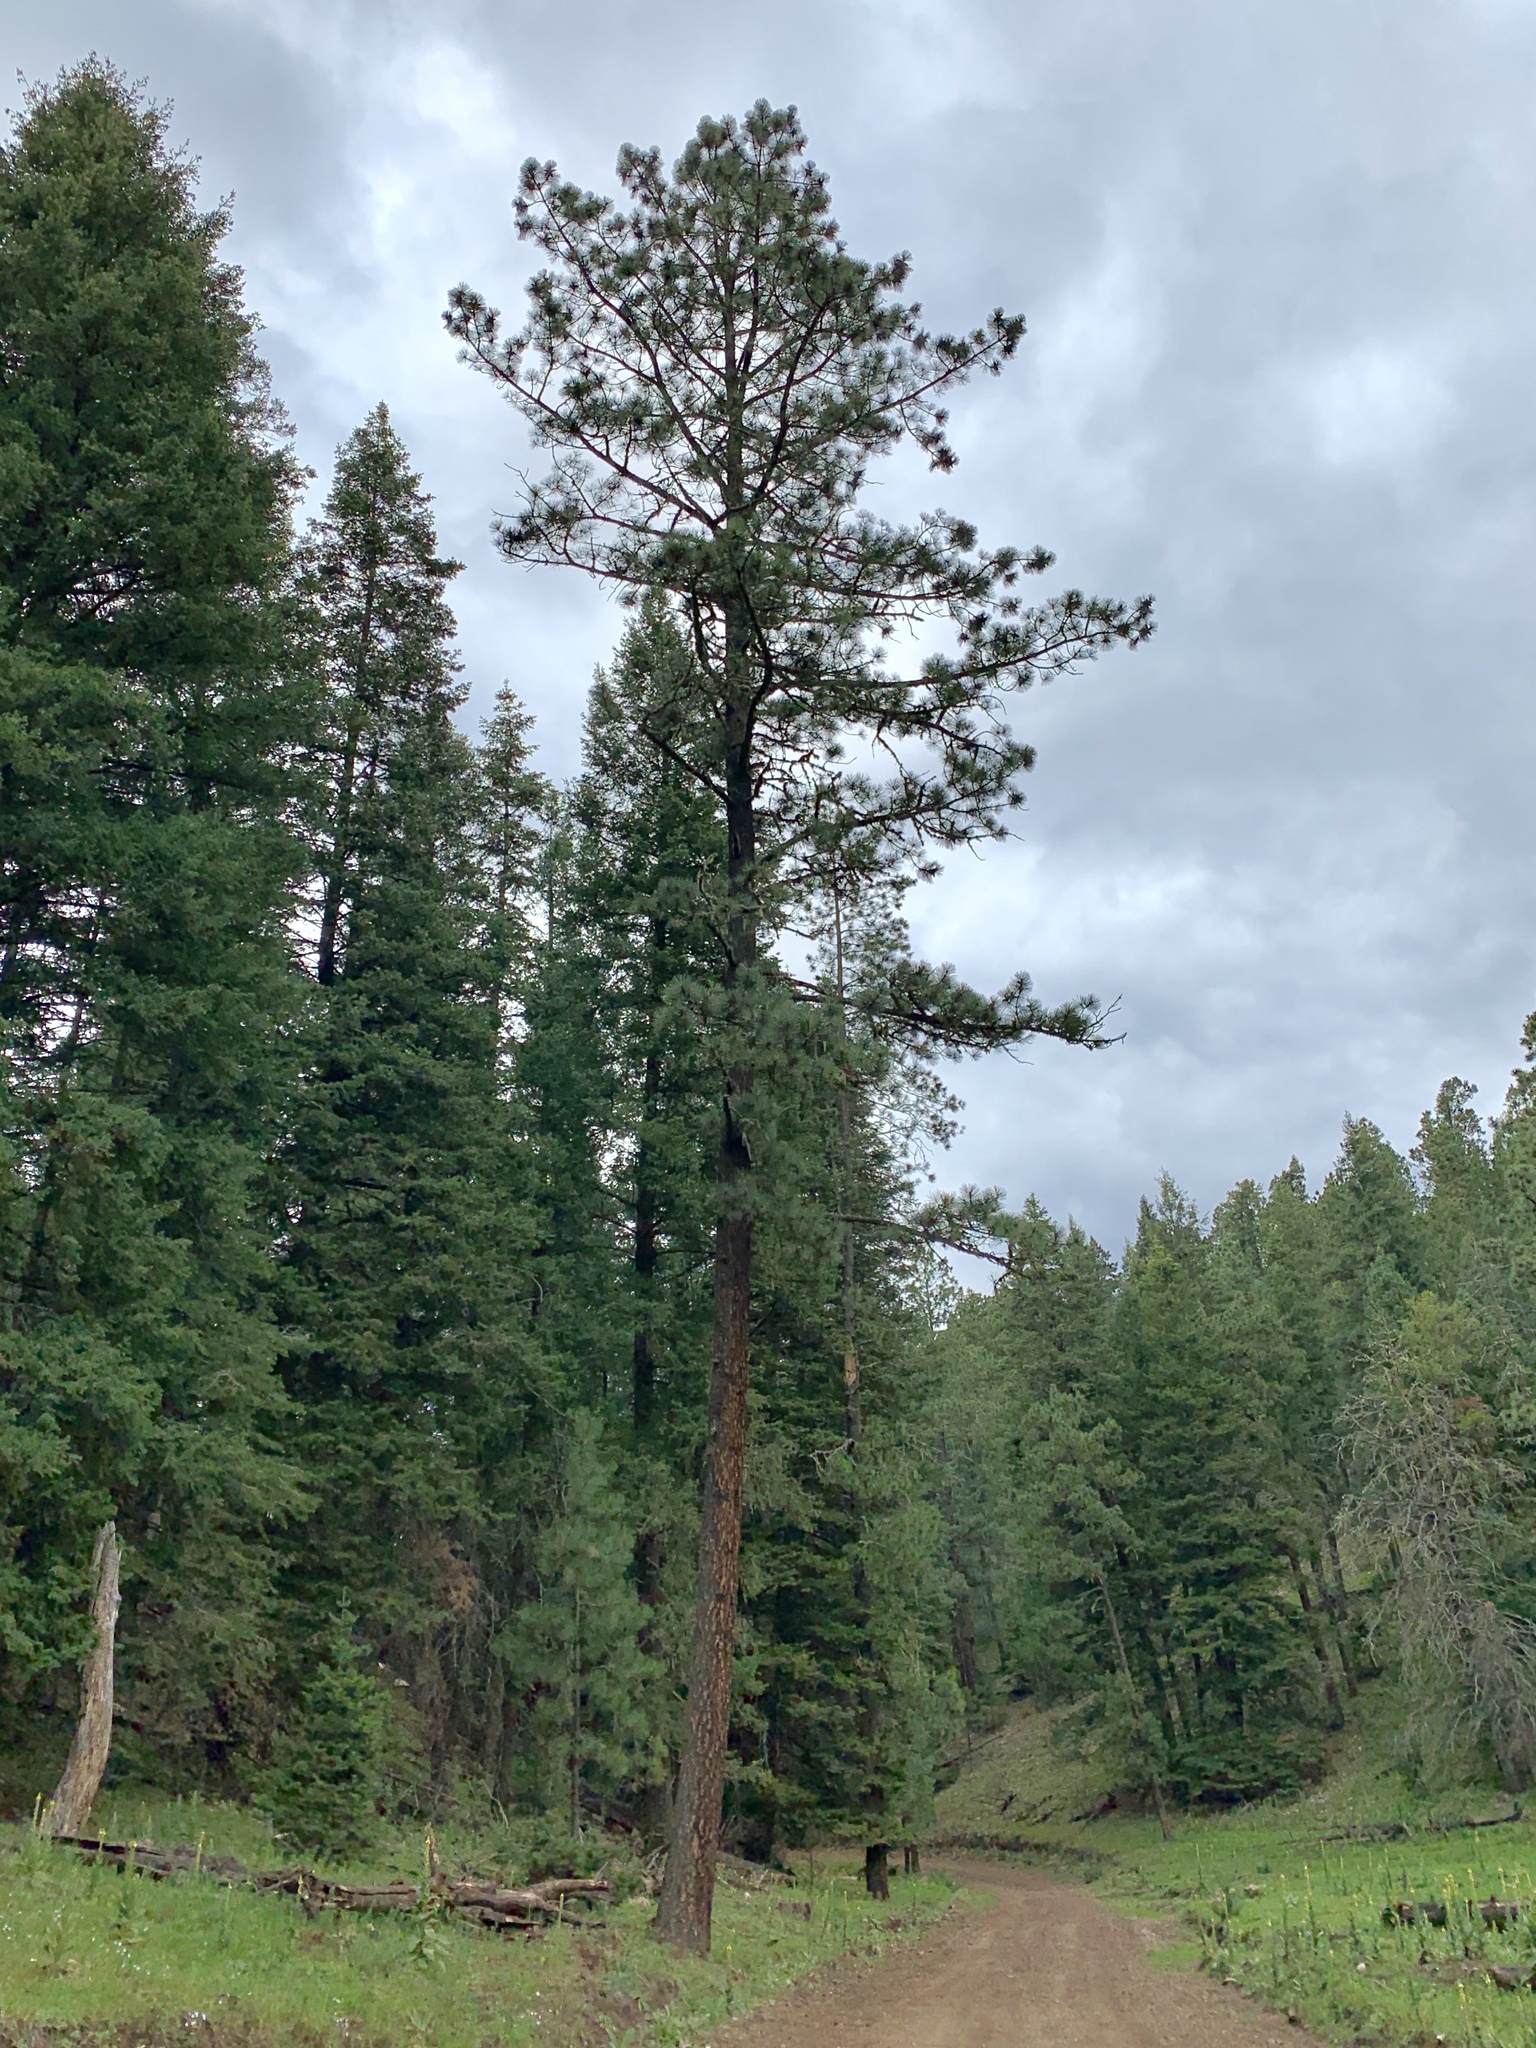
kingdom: Plantae
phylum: Tracheophyta
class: Pinopsida
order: Pinales
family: Pinaceae
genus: Pinus
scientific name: Pinus ponderosa
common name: Western yellow-pine
